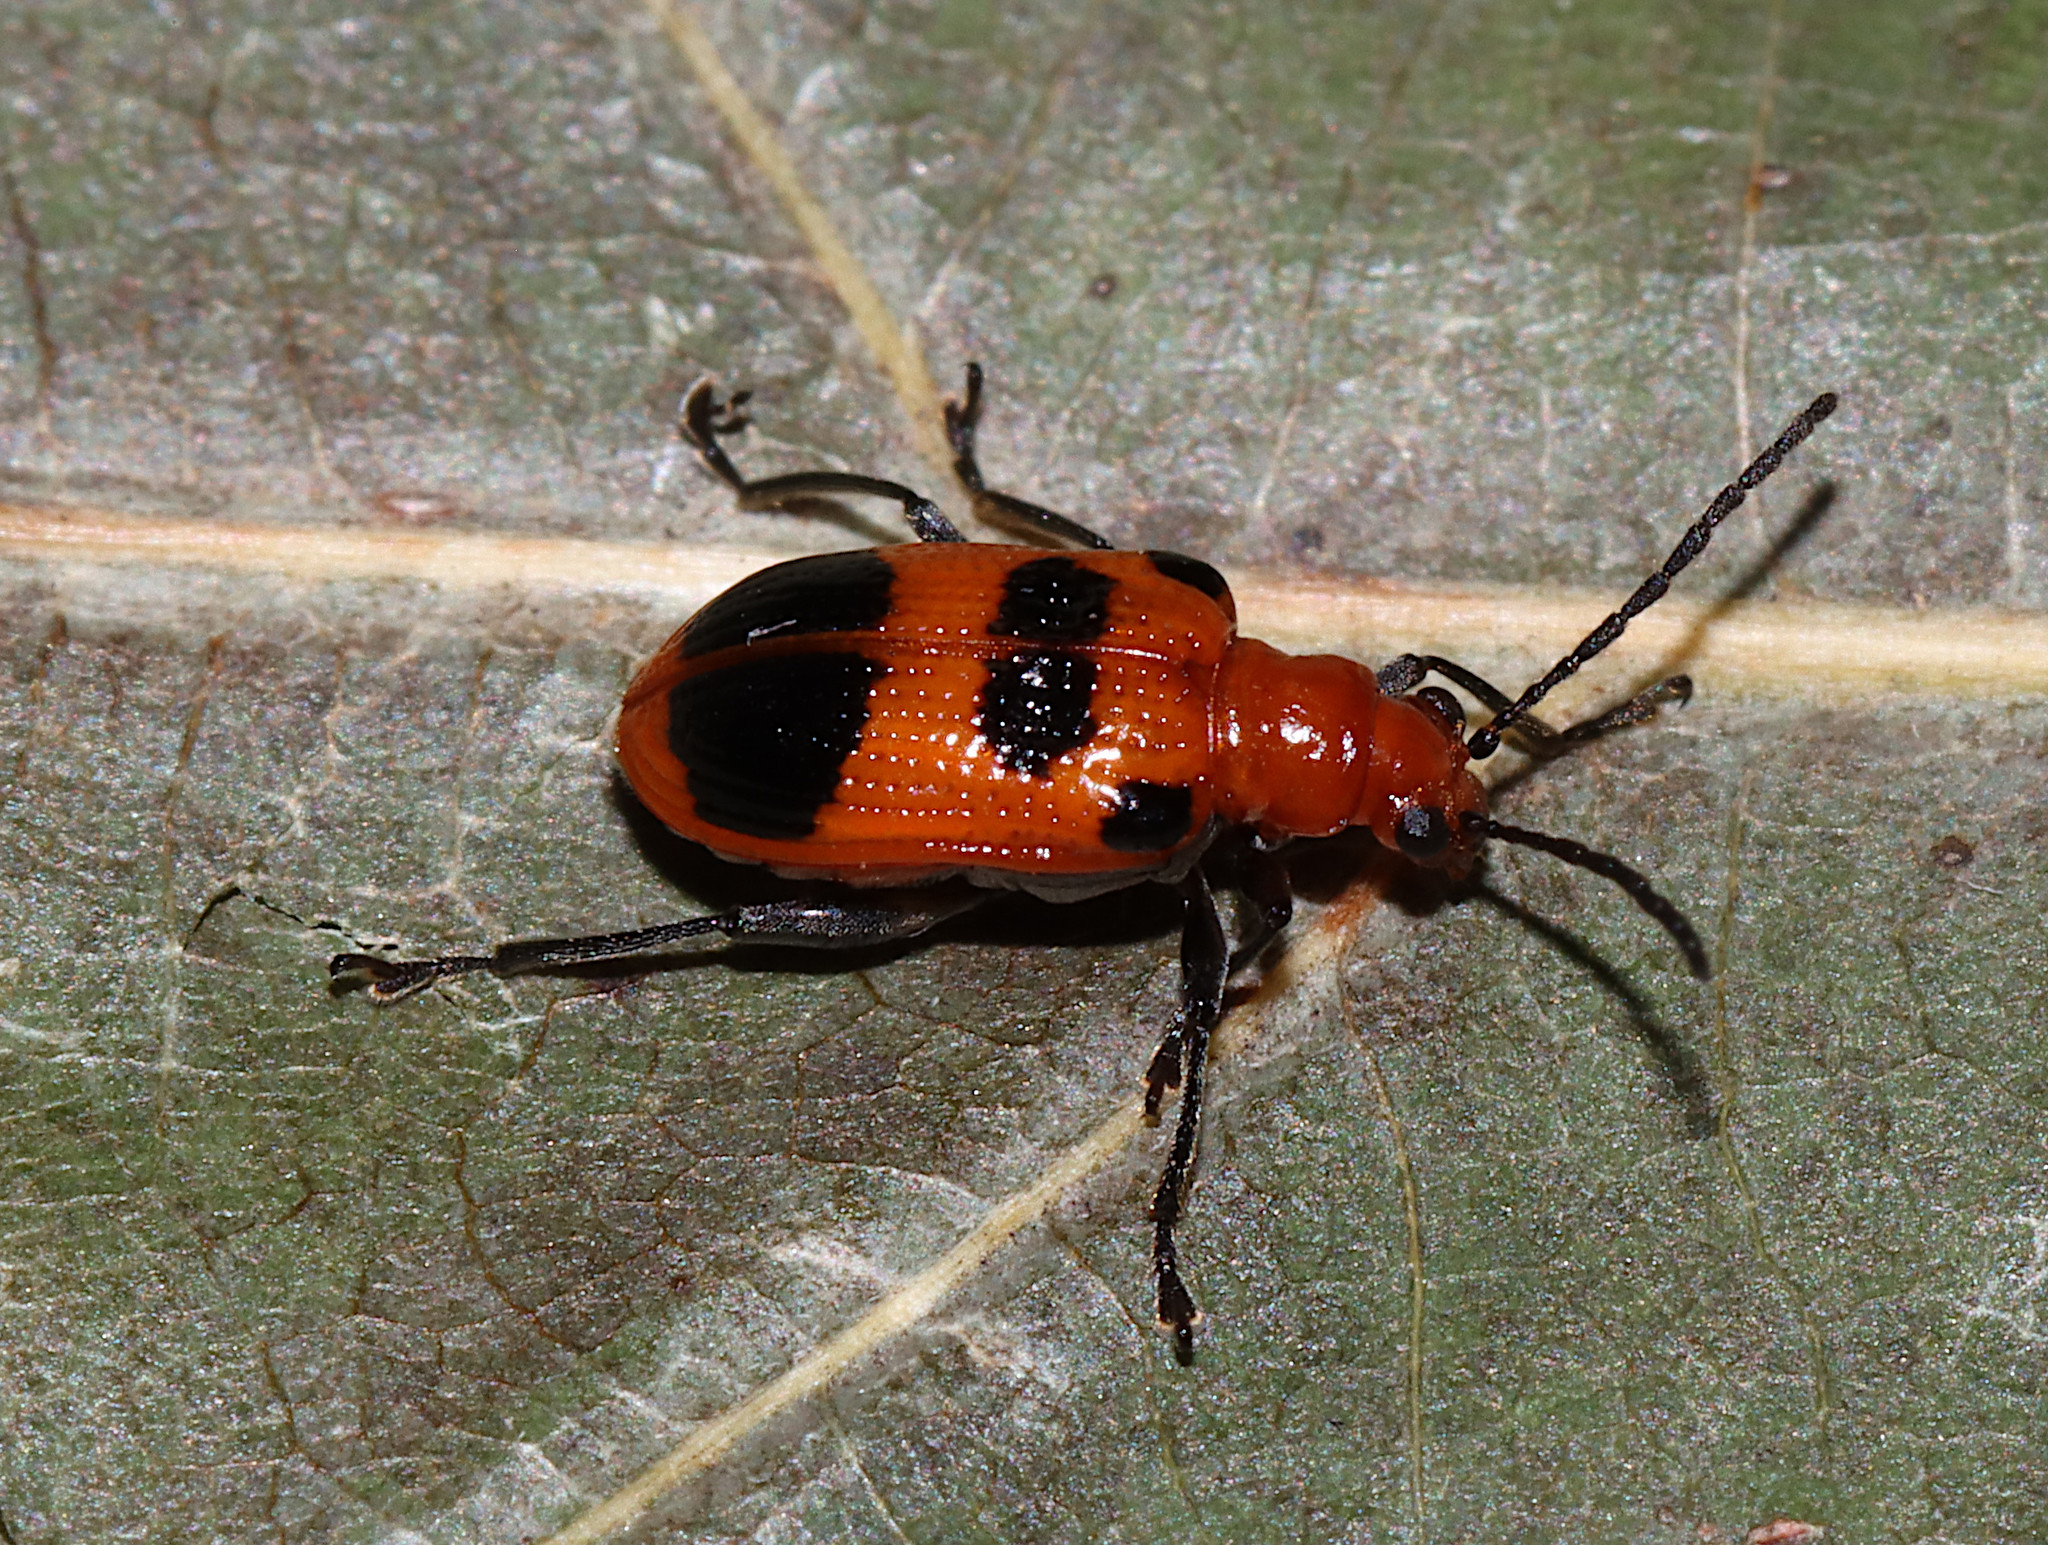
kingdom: Animalia
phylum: Arthropoda
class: Insecta
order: Coleoptera
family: Chrysomelidae
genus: Neolema
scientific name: Neolema sexpunctata
